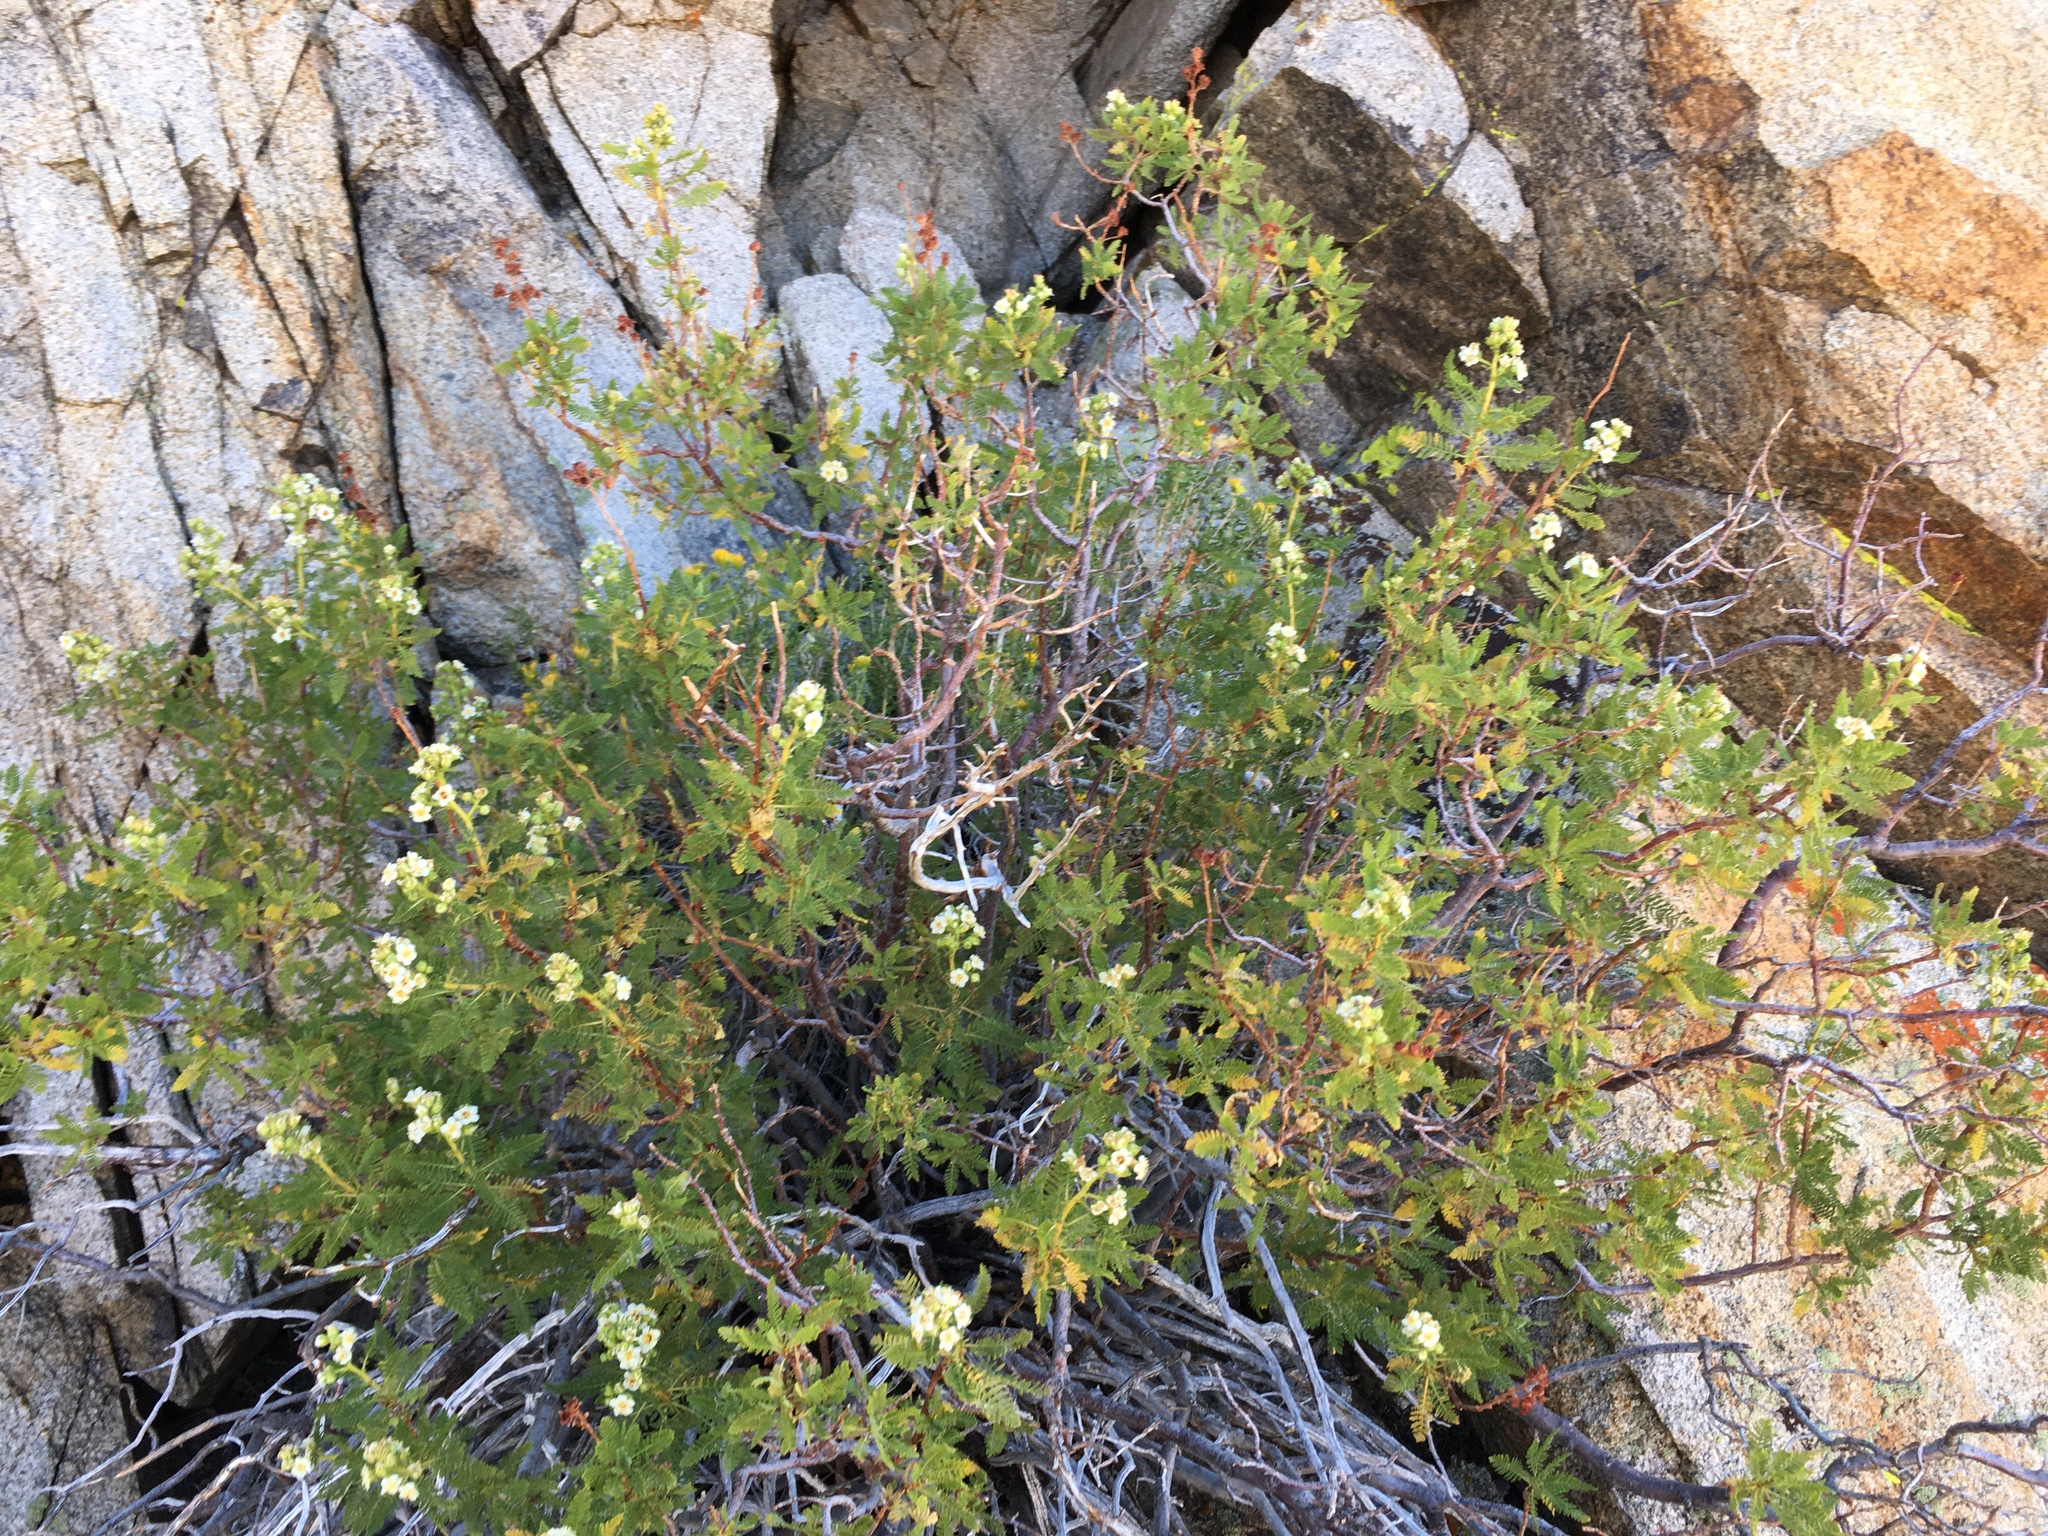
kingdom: Plantae
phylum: Tracheophyta
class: Magnoliopsida
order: Rosales
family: Rosaceae
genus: Chamaebatiaria
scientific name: Chamaebatiaria millefolium
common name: Fernbush
